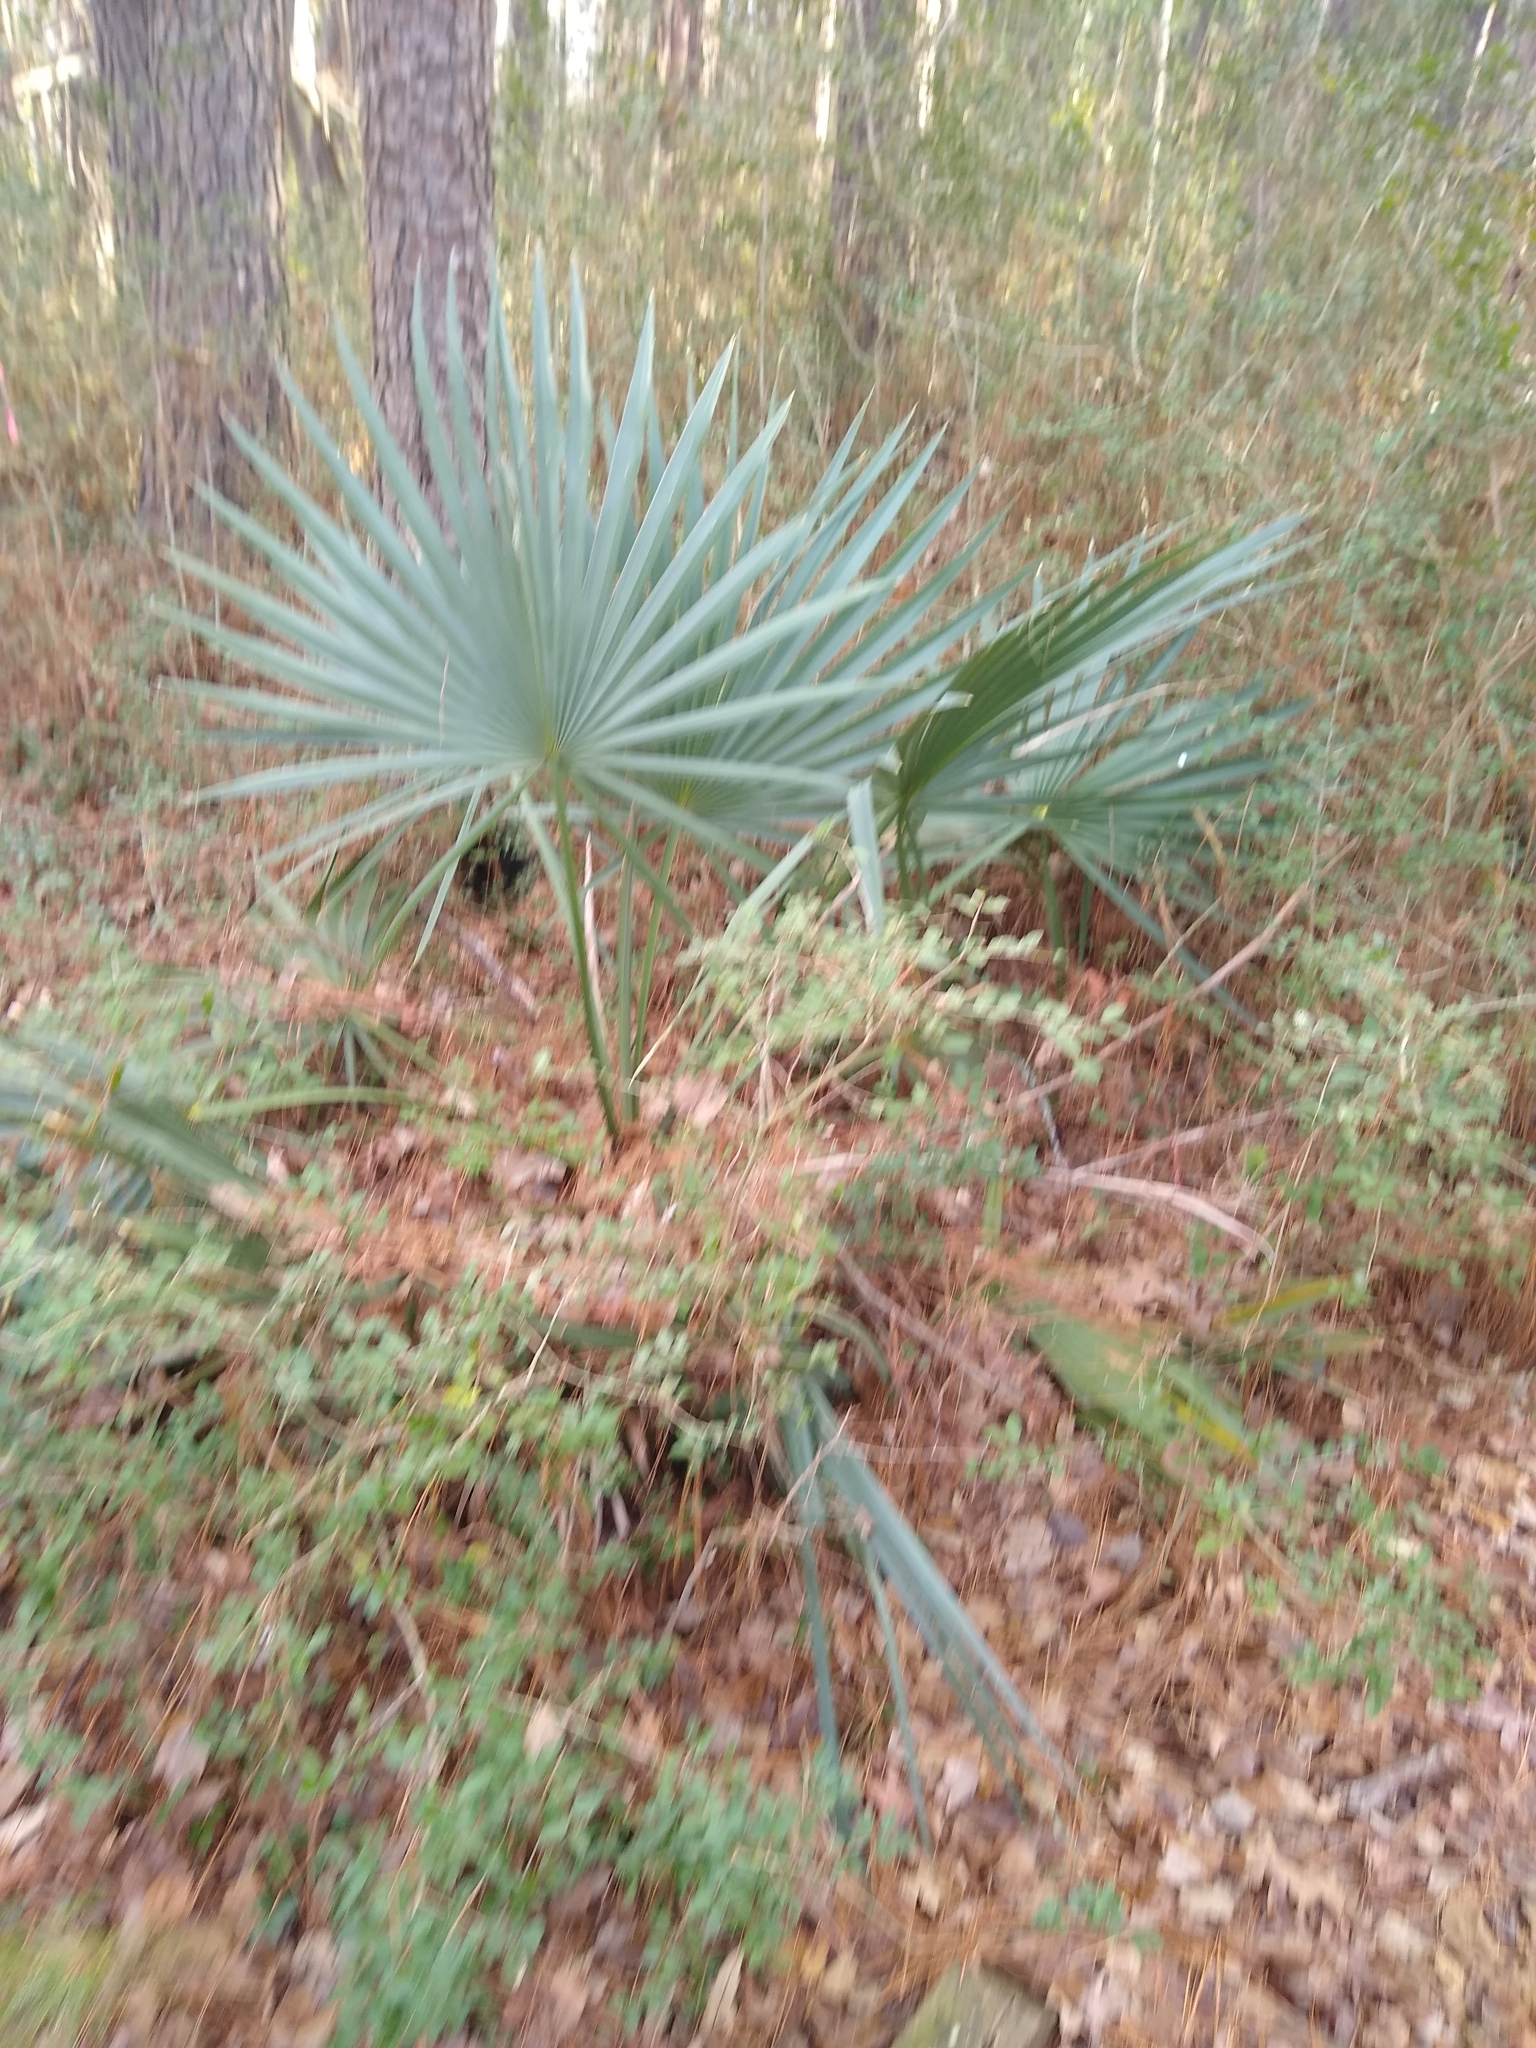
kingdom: Plantae
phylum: Tracheophyta
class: Liliopsida
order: Arecales
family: Arecaceae
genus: Sabal
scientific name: Sabal minor
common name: Dwarf palmetto
